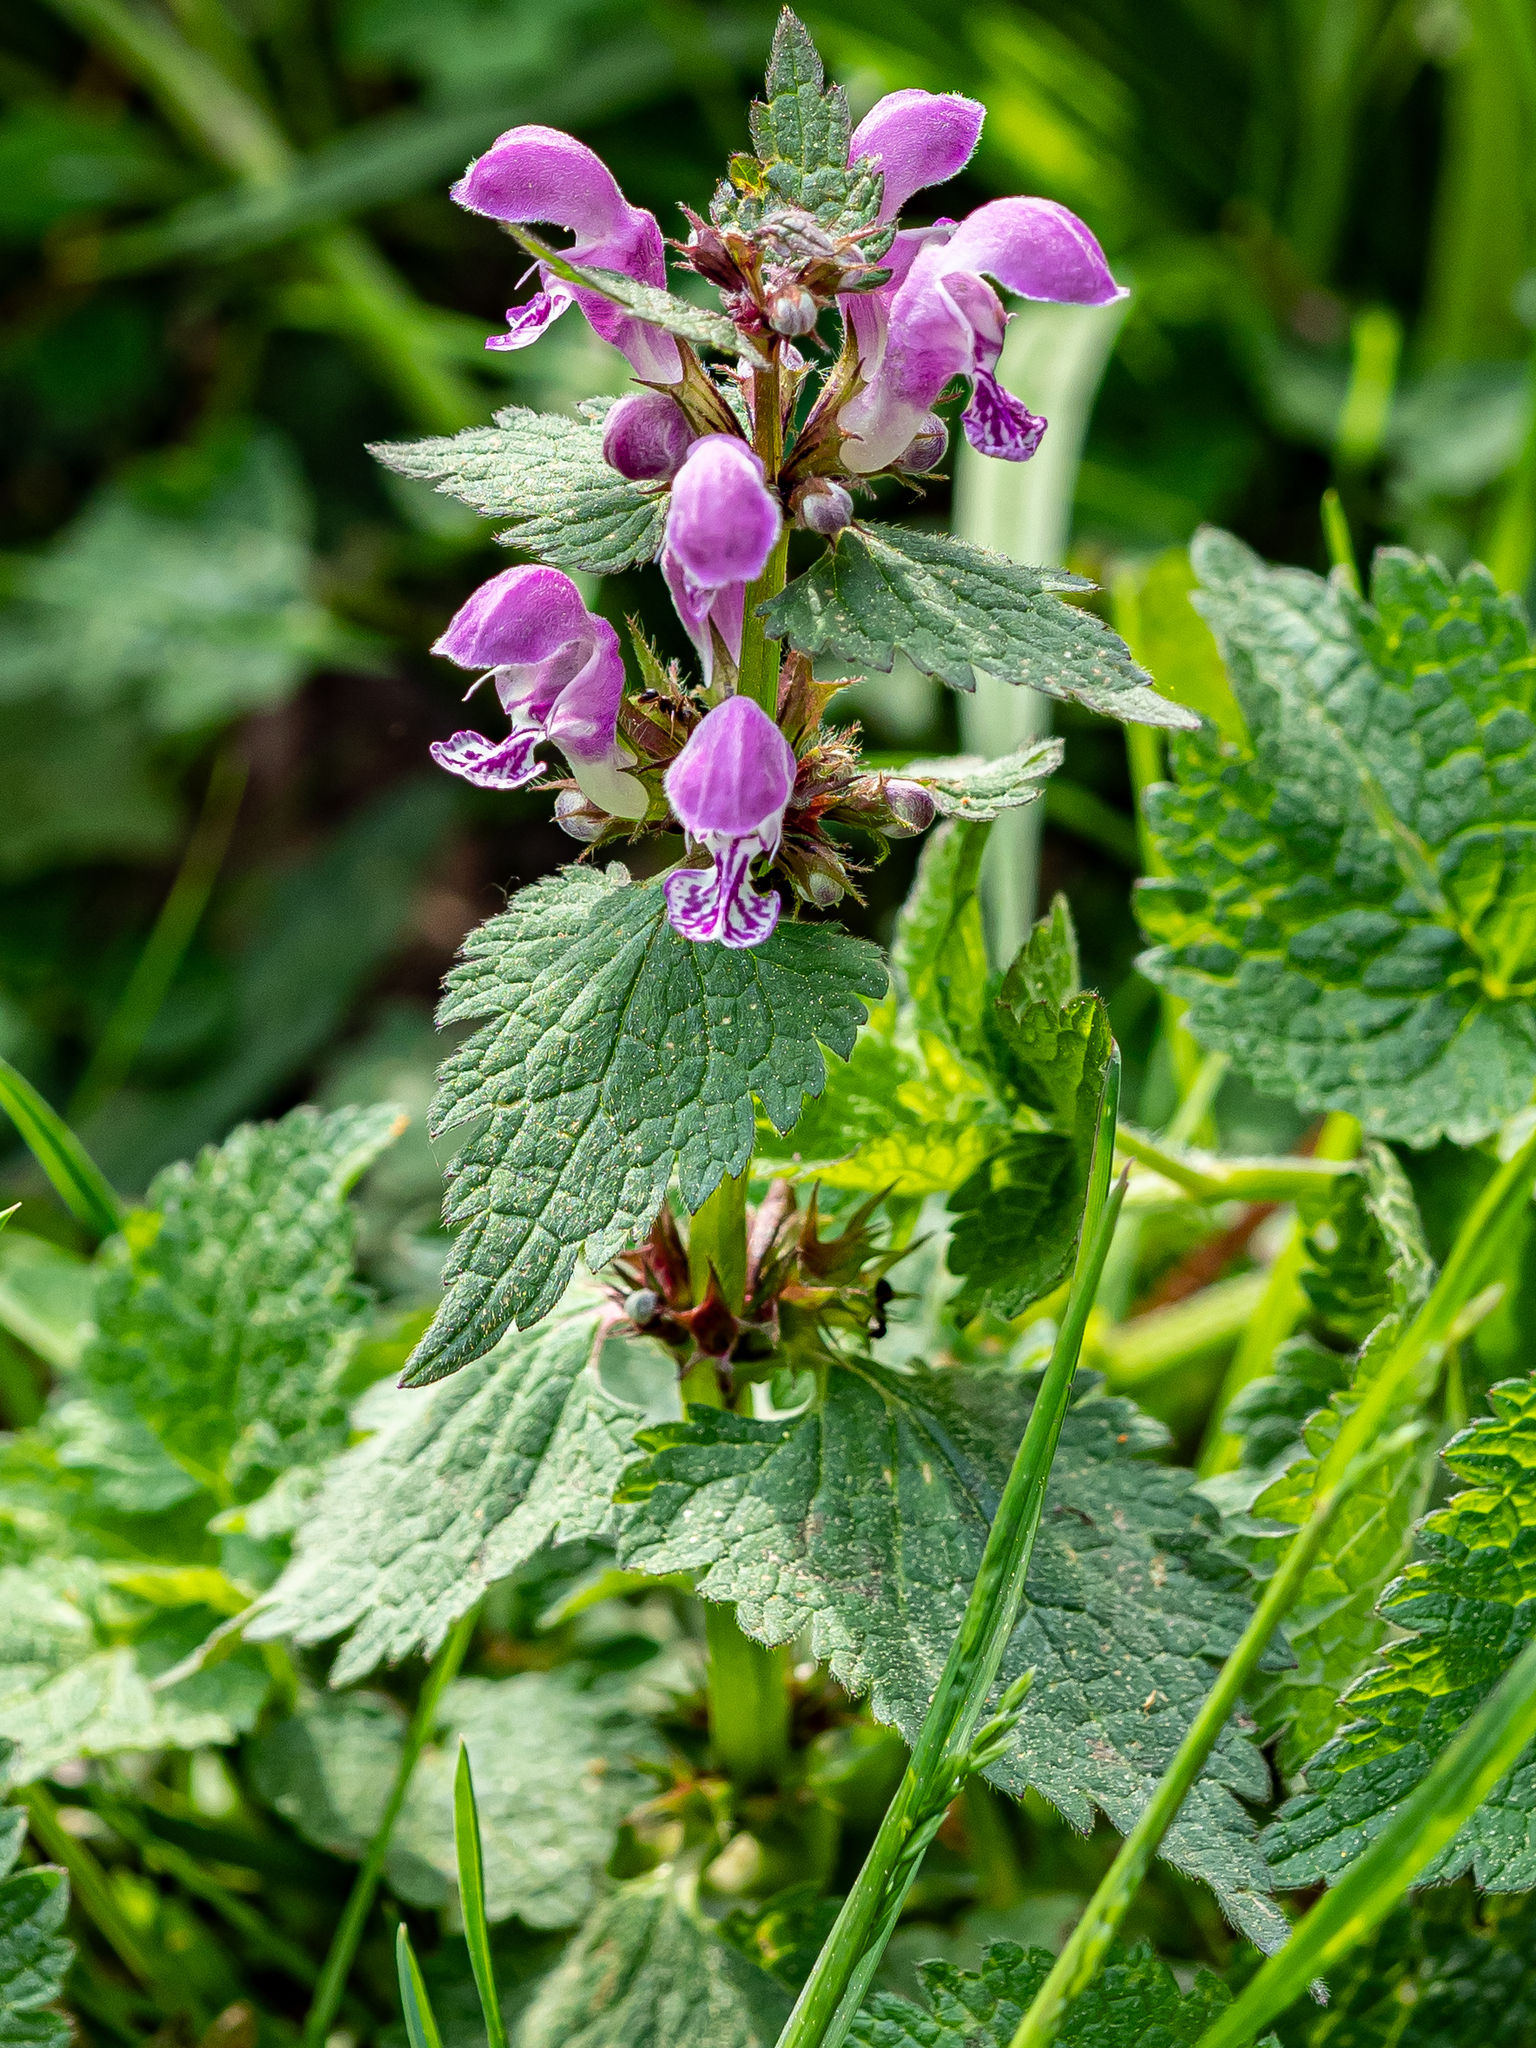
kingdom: Plantae
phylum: Tracheophyta
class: Magnoliopsida
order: Lamiales
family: Lamiaceae
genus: Lamium
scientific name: Lamium maculatum
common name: Spotted dead-nettle
